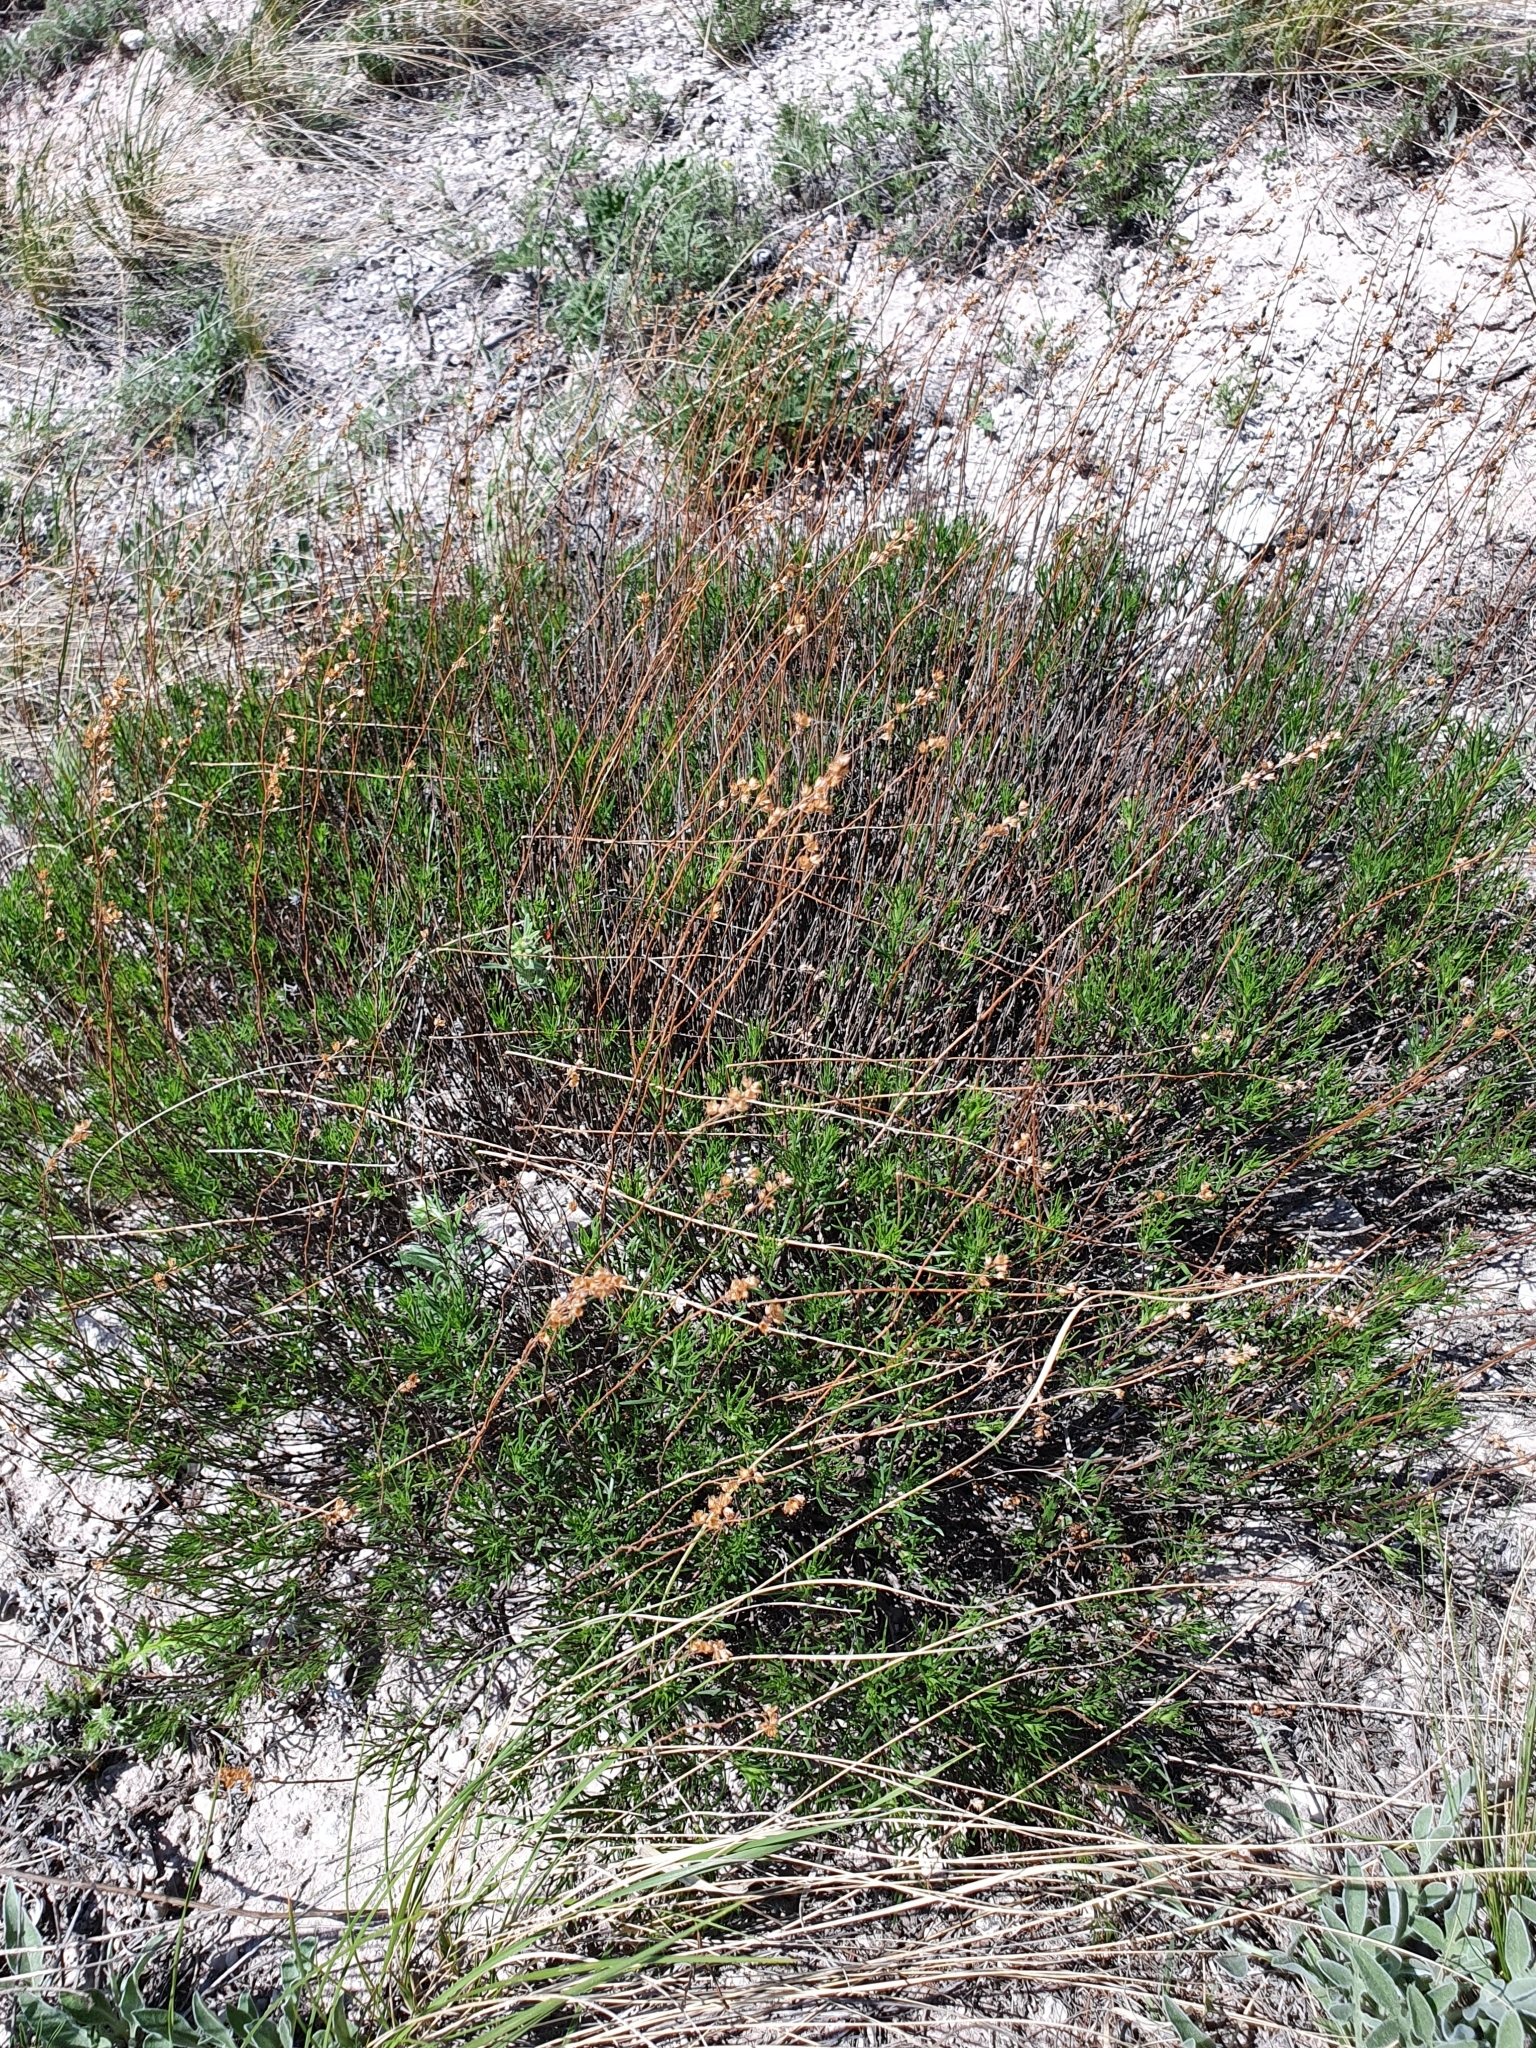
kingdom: Plantae
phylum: Tracheophyta
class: Magnoliopsida
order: Asterales
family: Asteraceae
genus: Artemisia
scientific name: Artemisia salsoloides
